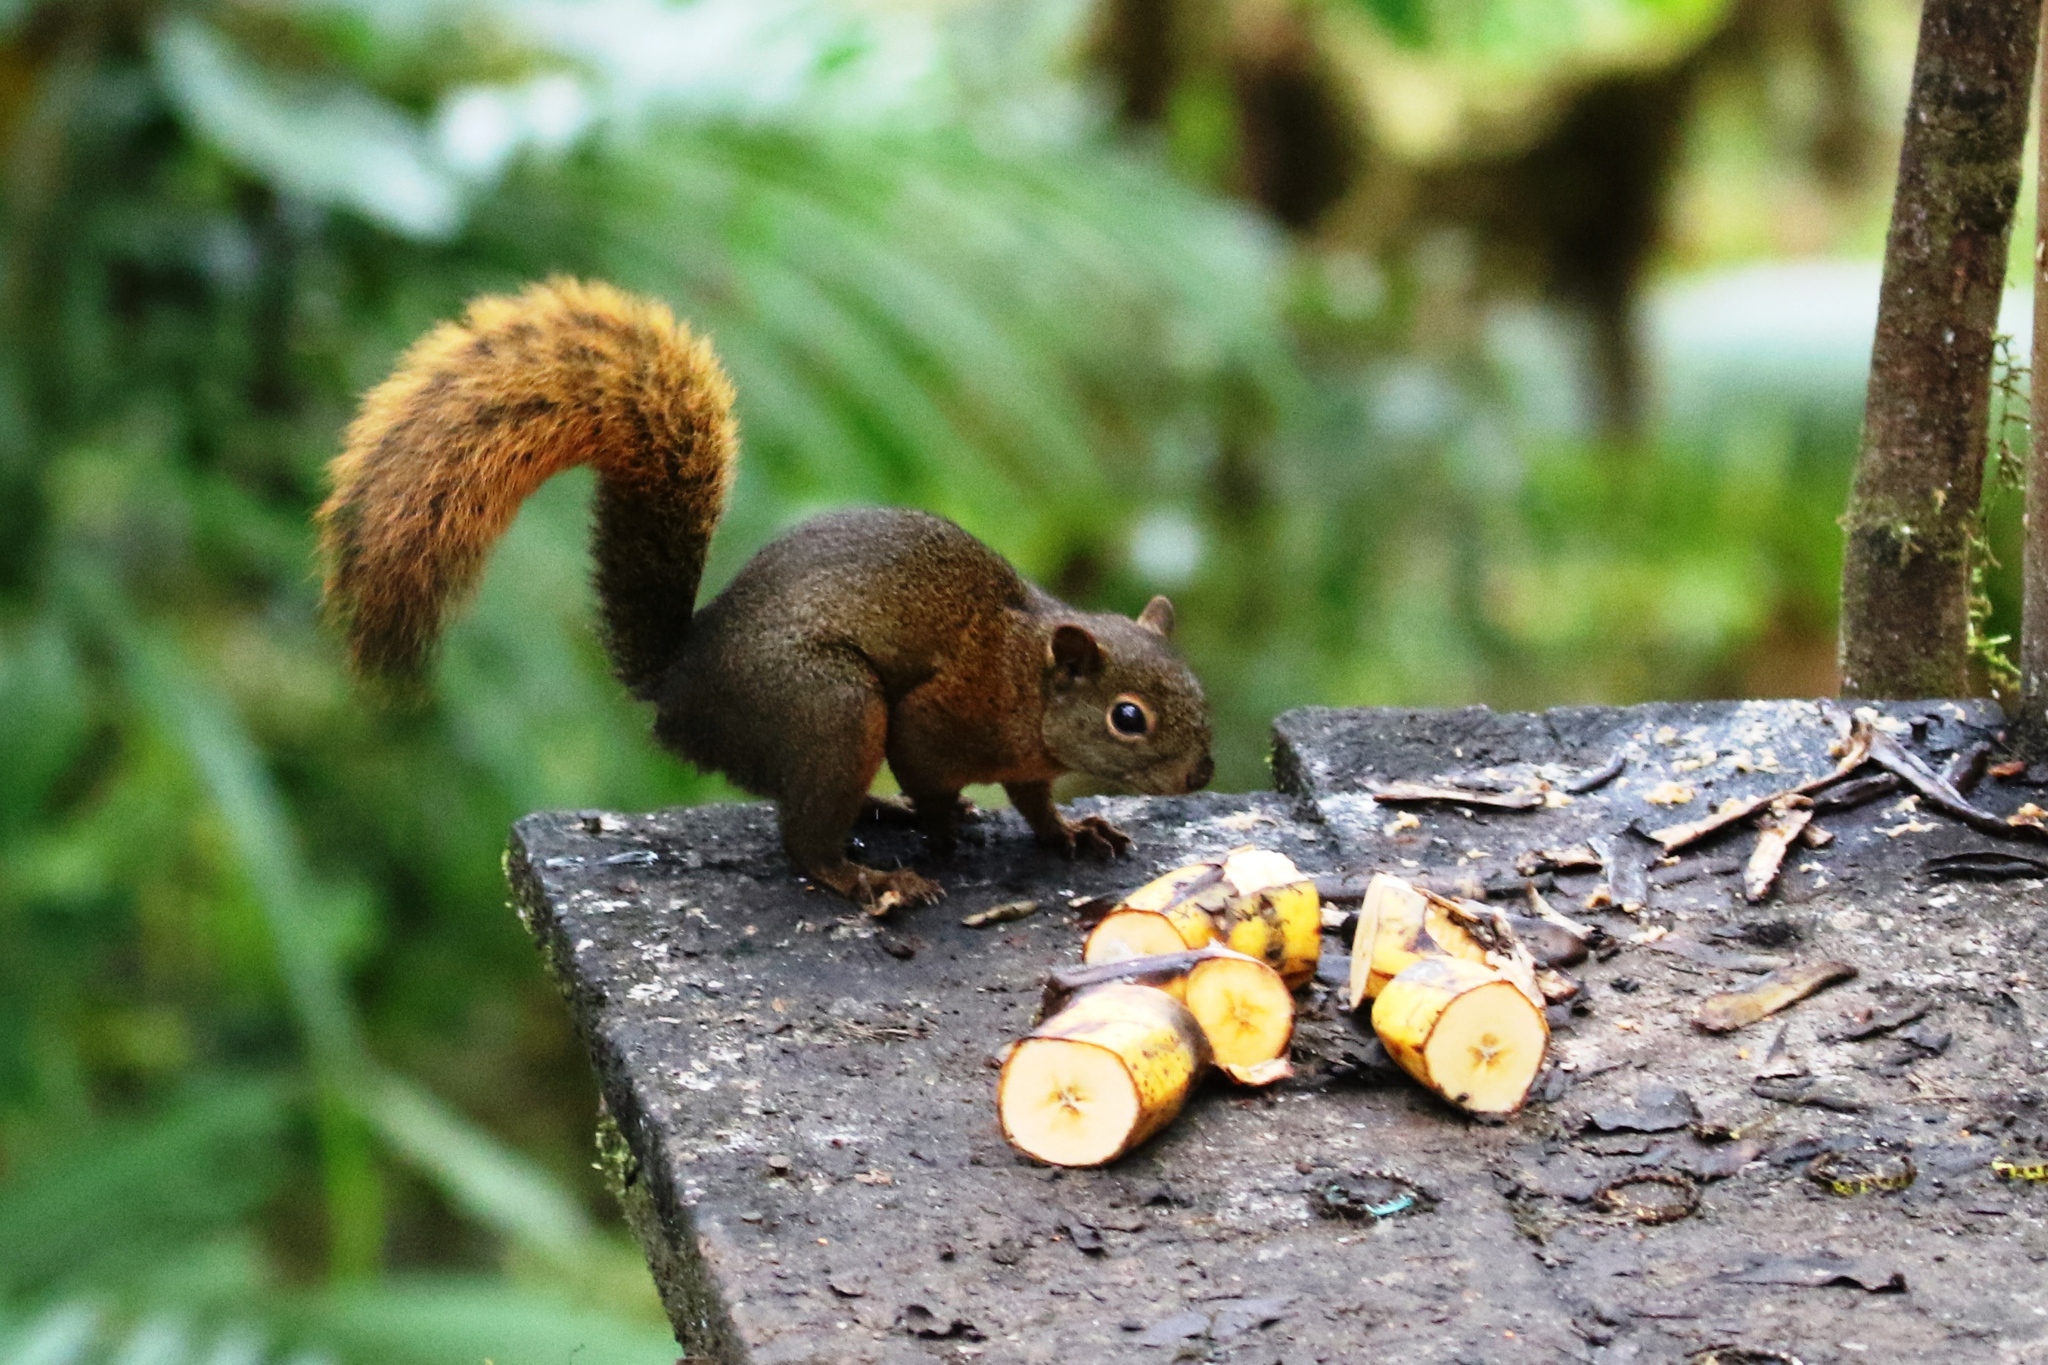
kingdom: Animalia
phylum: Chordata
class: Mammalia
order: Rodentia
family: Sciuridae
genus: Sciurus
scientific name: Sciurus granatensis
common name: Red-tailed squirrel
